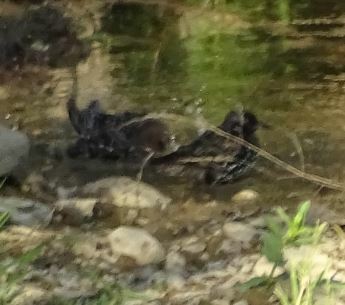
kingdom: Animalia
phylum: Chordata
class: Aves
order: Passeriformes
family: Sturnidae
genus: Sturnus
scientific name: Sturnus vulgaris
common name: Common starling
